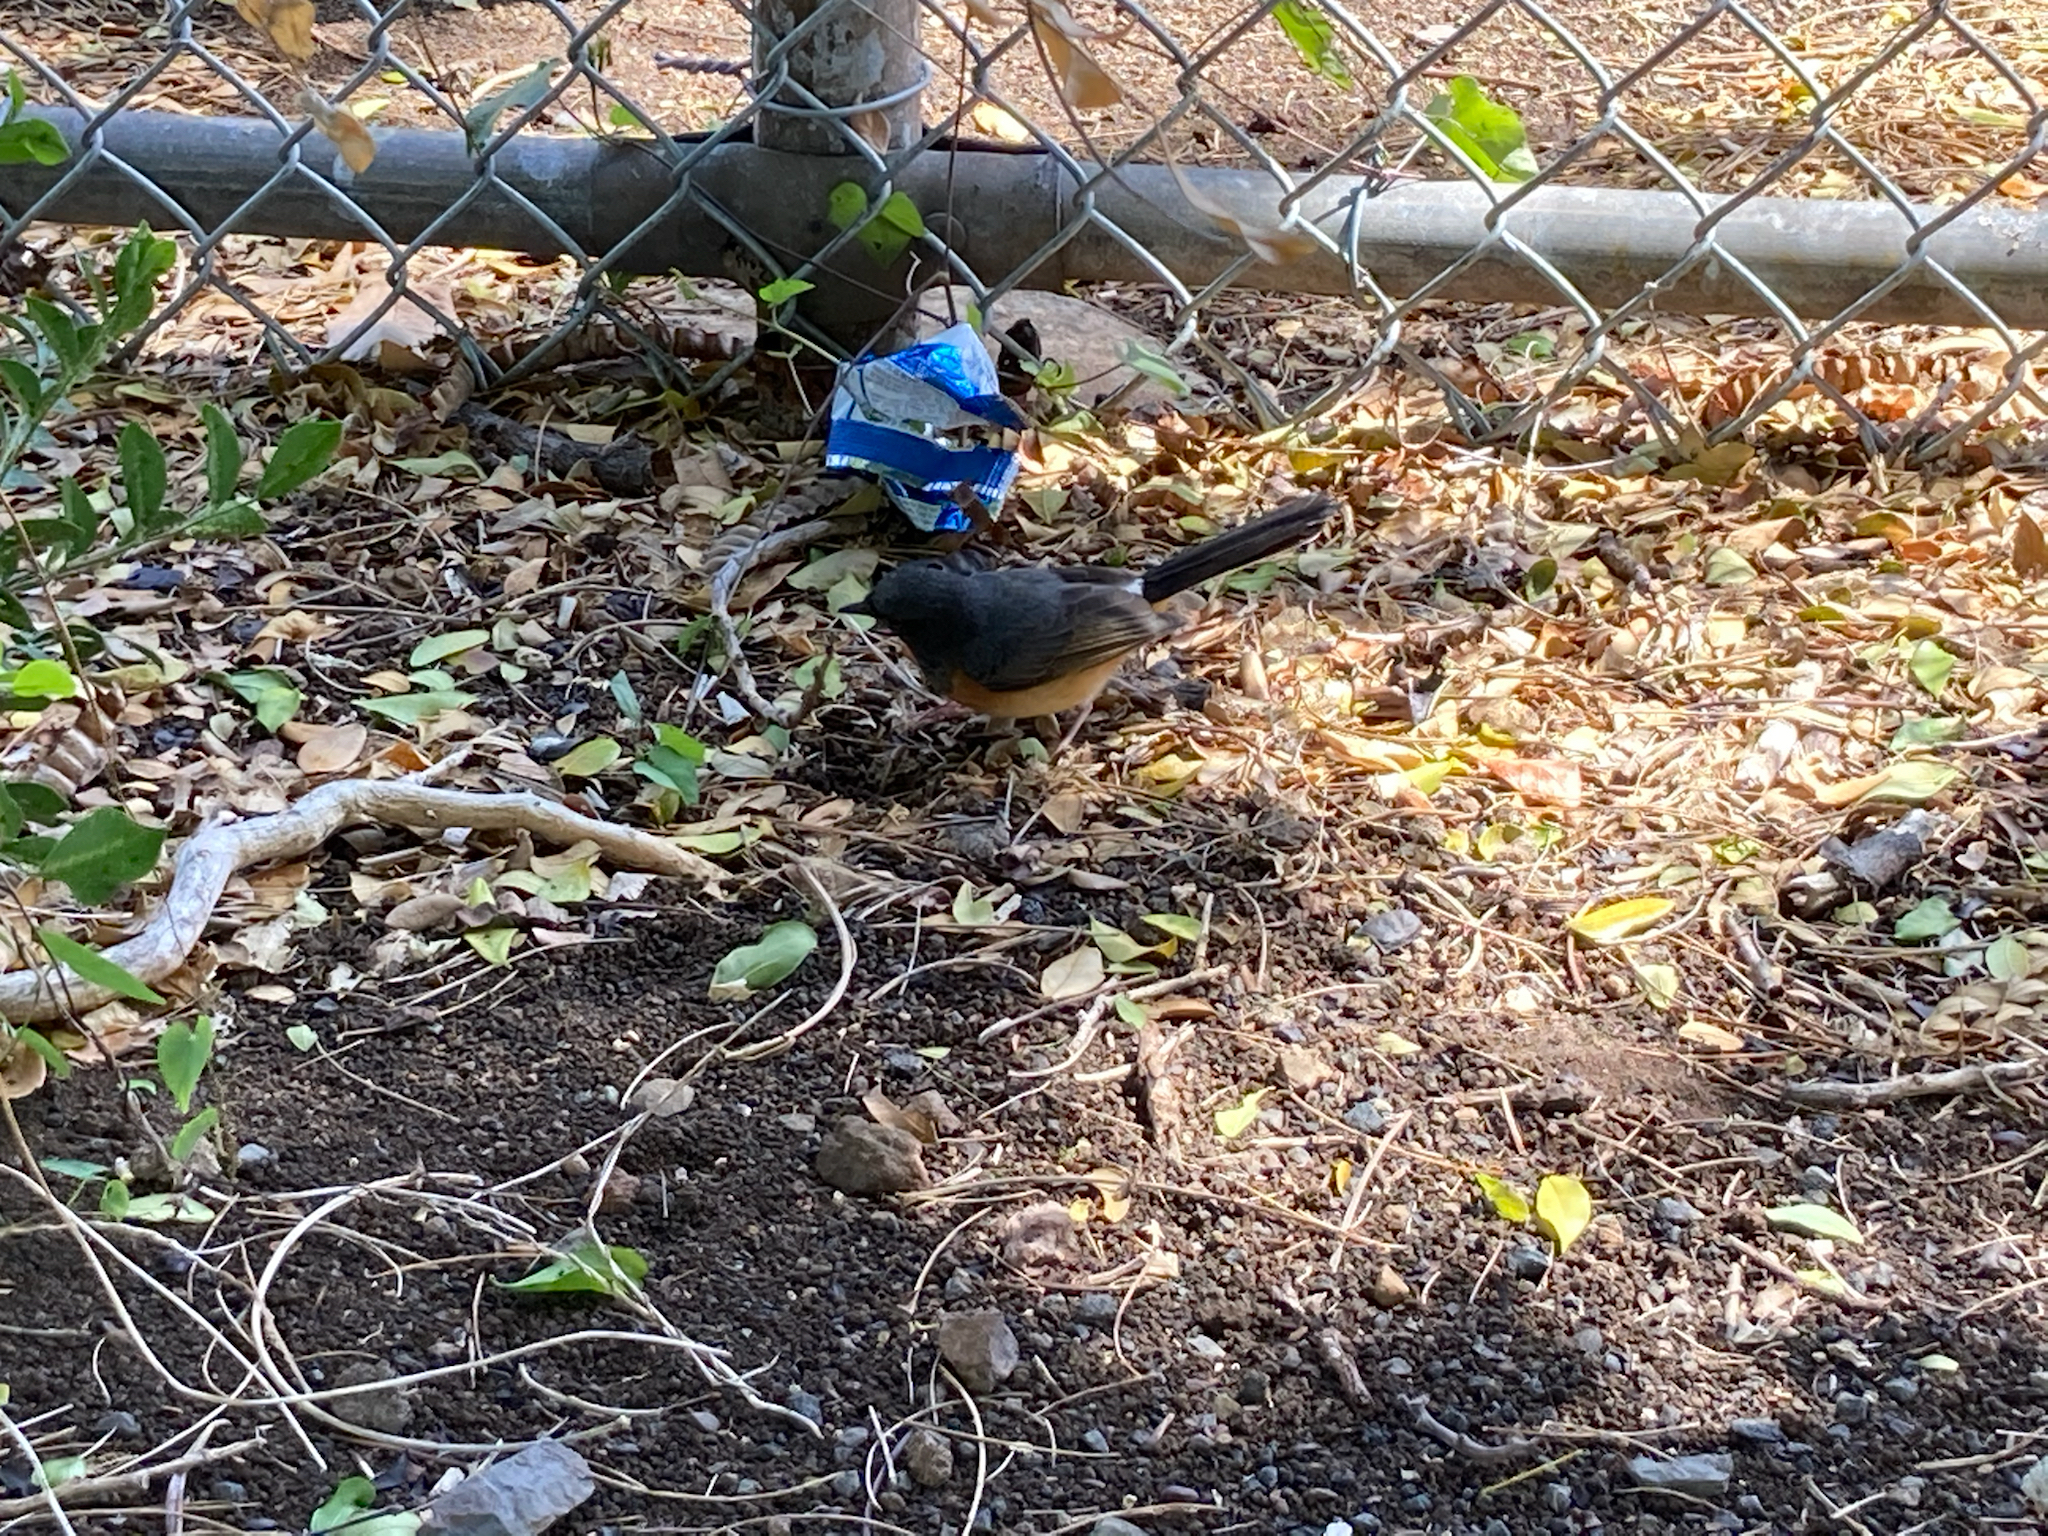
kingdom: Animalia
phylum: Chordata
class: Aves
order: Passeriformes
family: Muscicapidae
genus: Copsychus
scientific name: Copsychus malabaricus
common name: White-rumped shama
